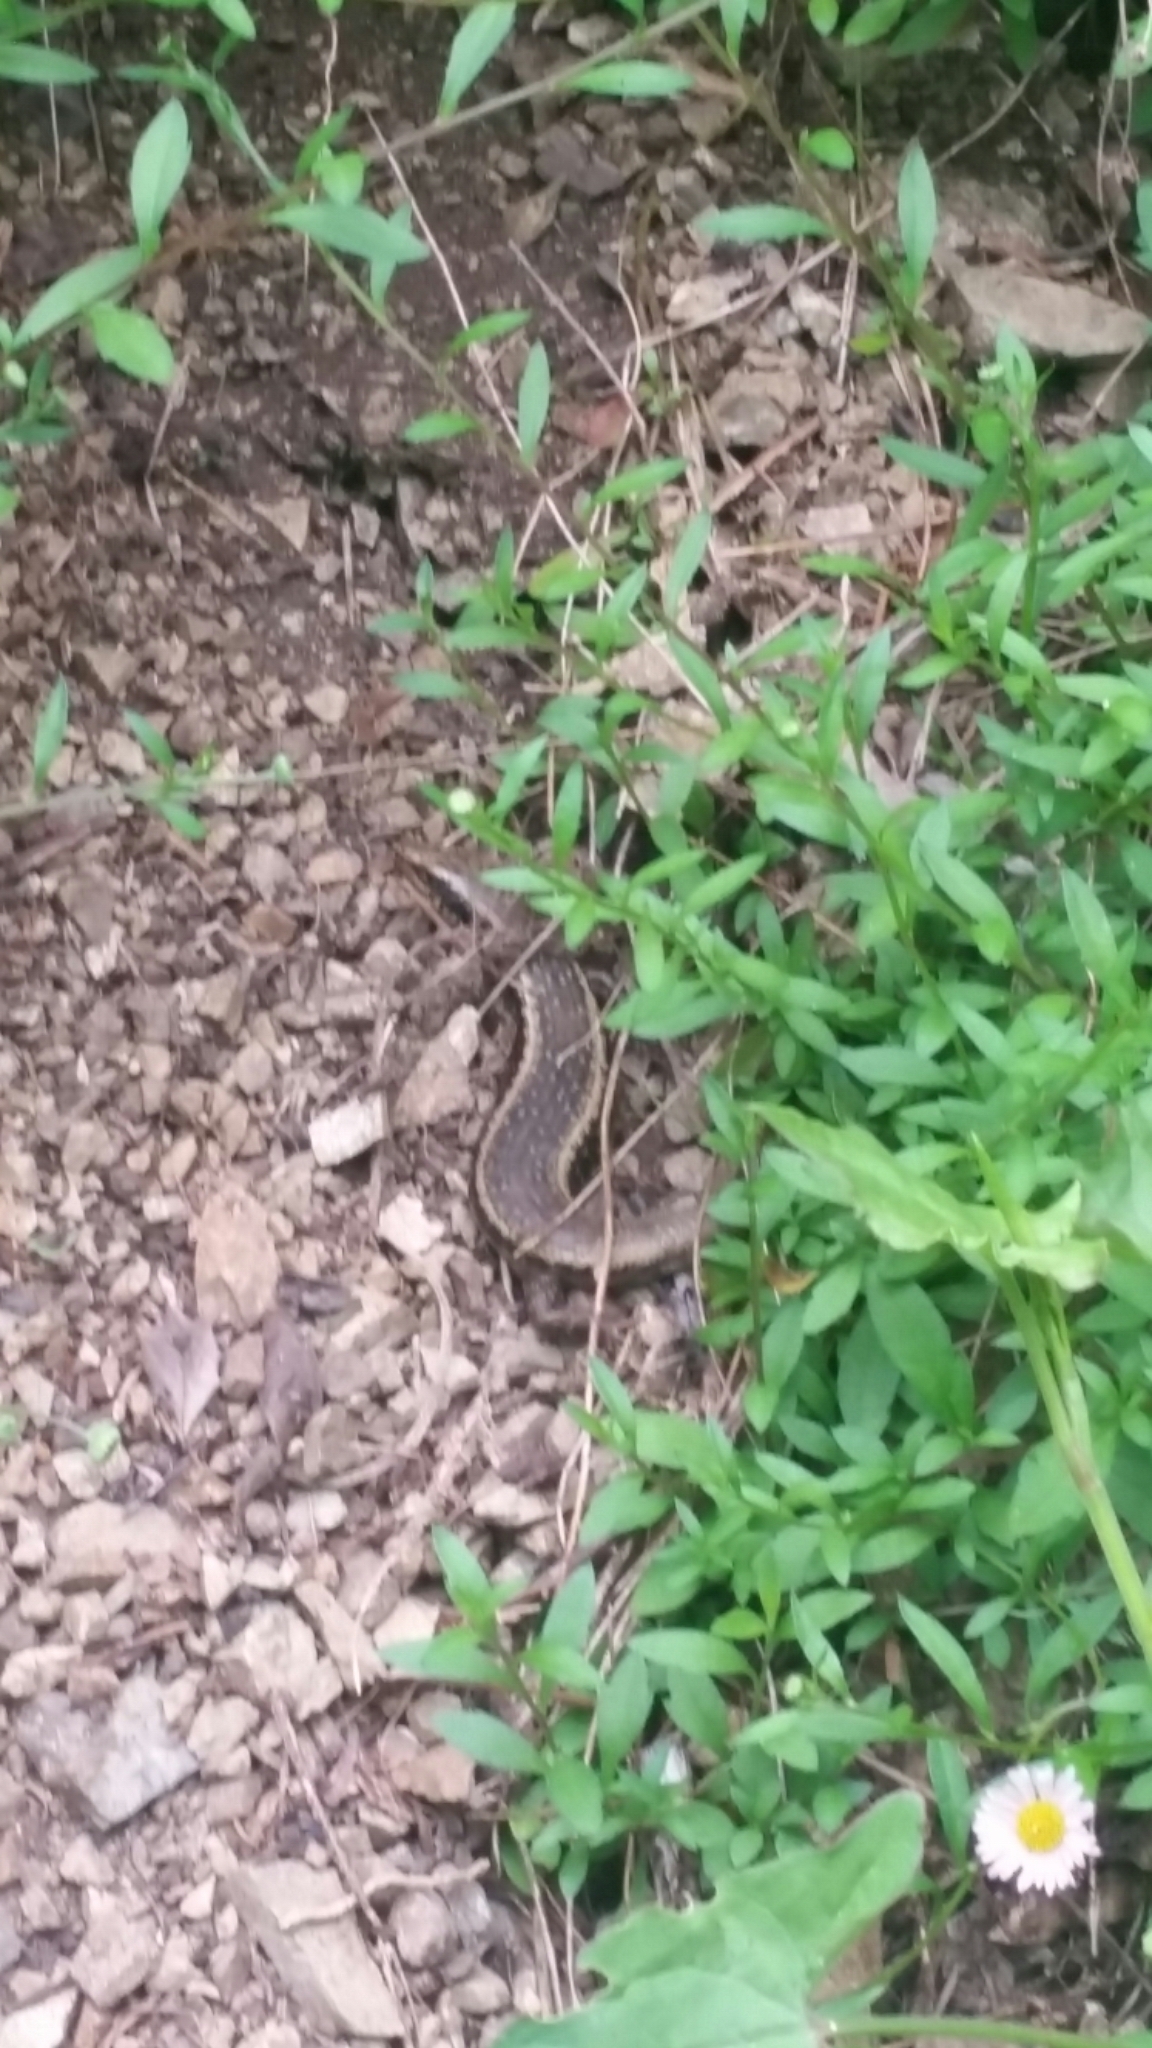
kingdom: Animalia
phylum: Chordata
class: Squamata
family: Scincidae
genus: Oligosoma
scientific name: Oligosoma kokowai
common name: Northern spotted skink
